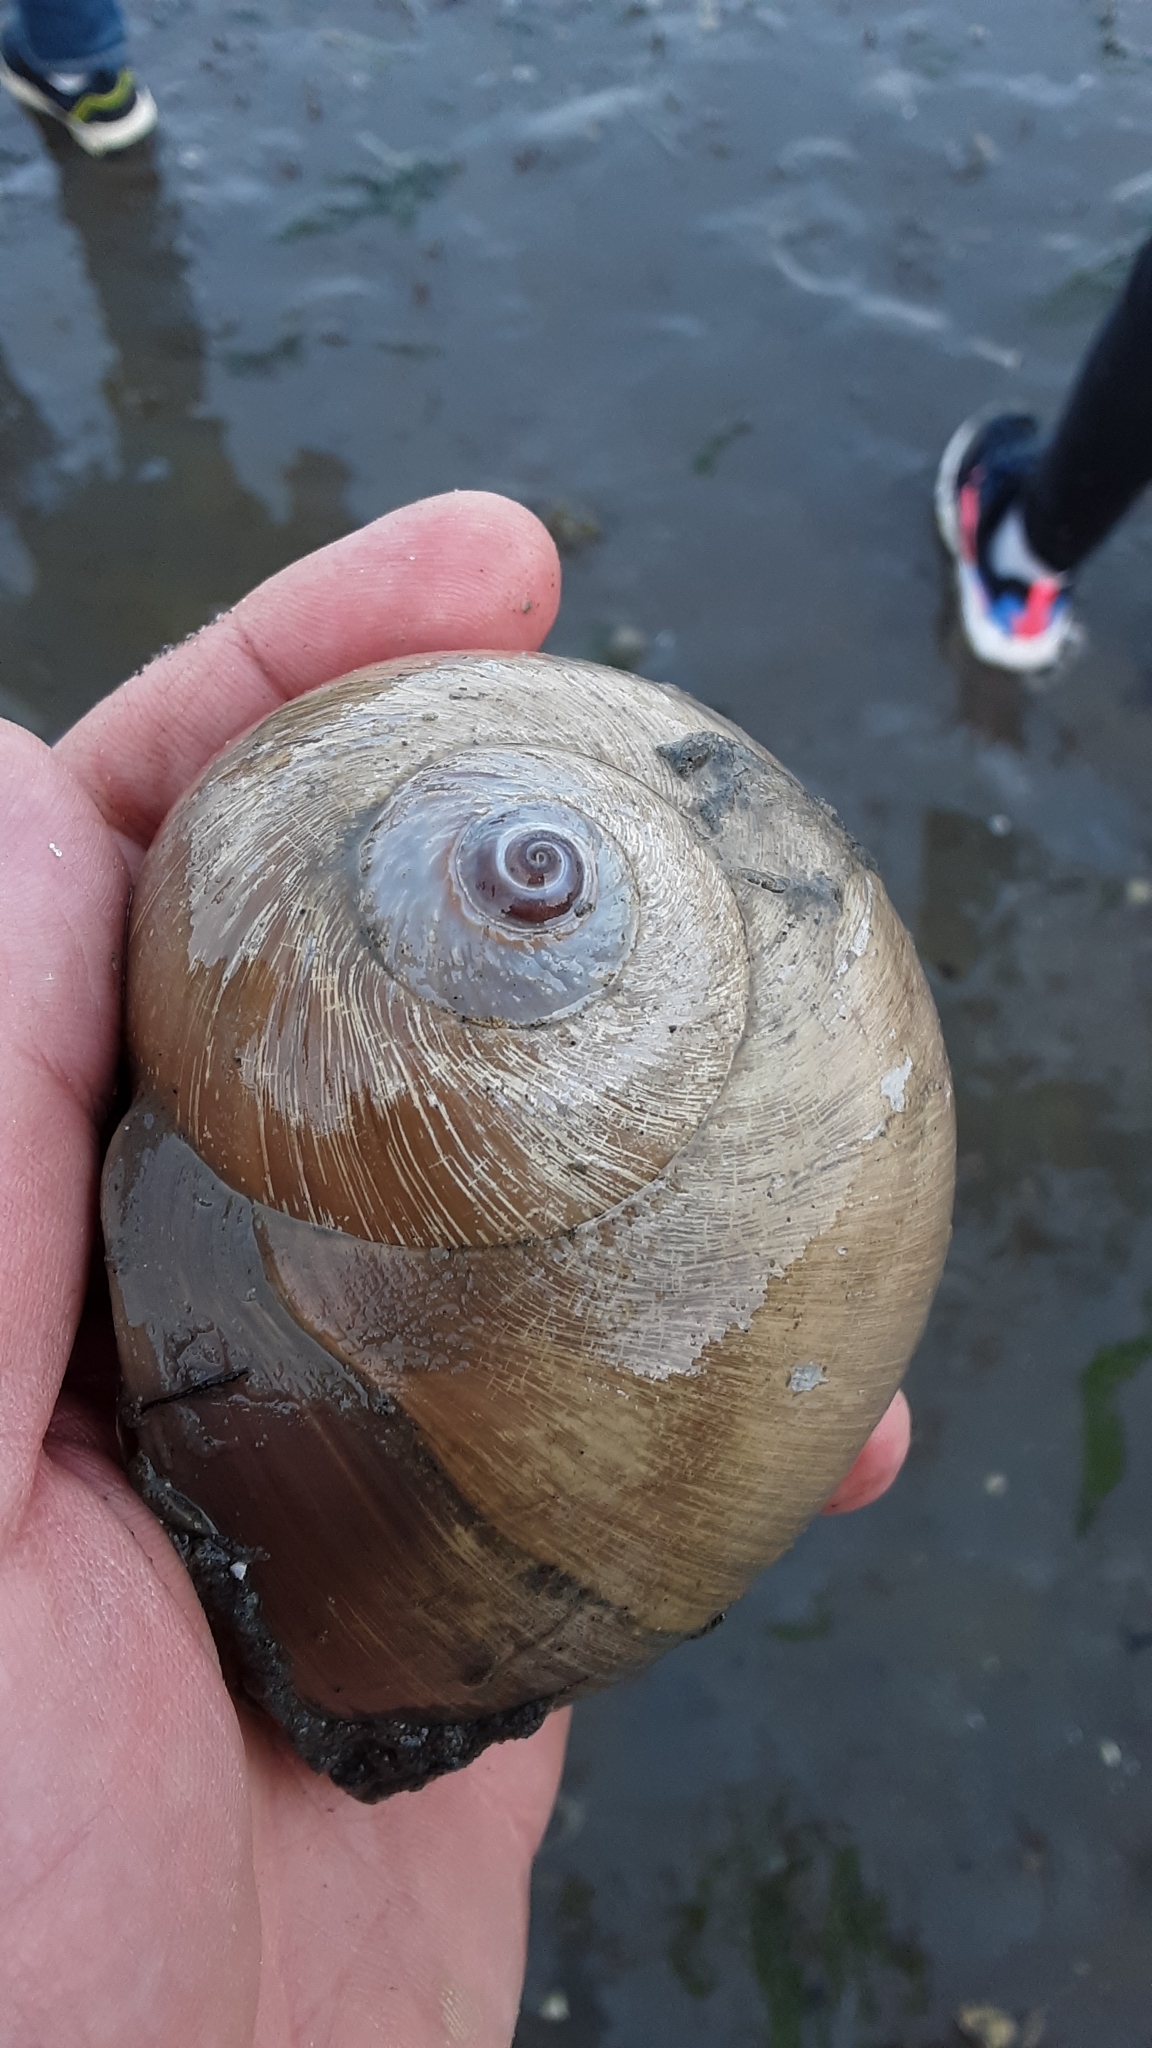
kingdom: Animalia
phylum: Mollusca
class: Gastropoda
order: Littorinimorpha
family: Naticidae
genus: Neverita
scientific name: Neverita lewisii
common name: Lewis' moonsnail
